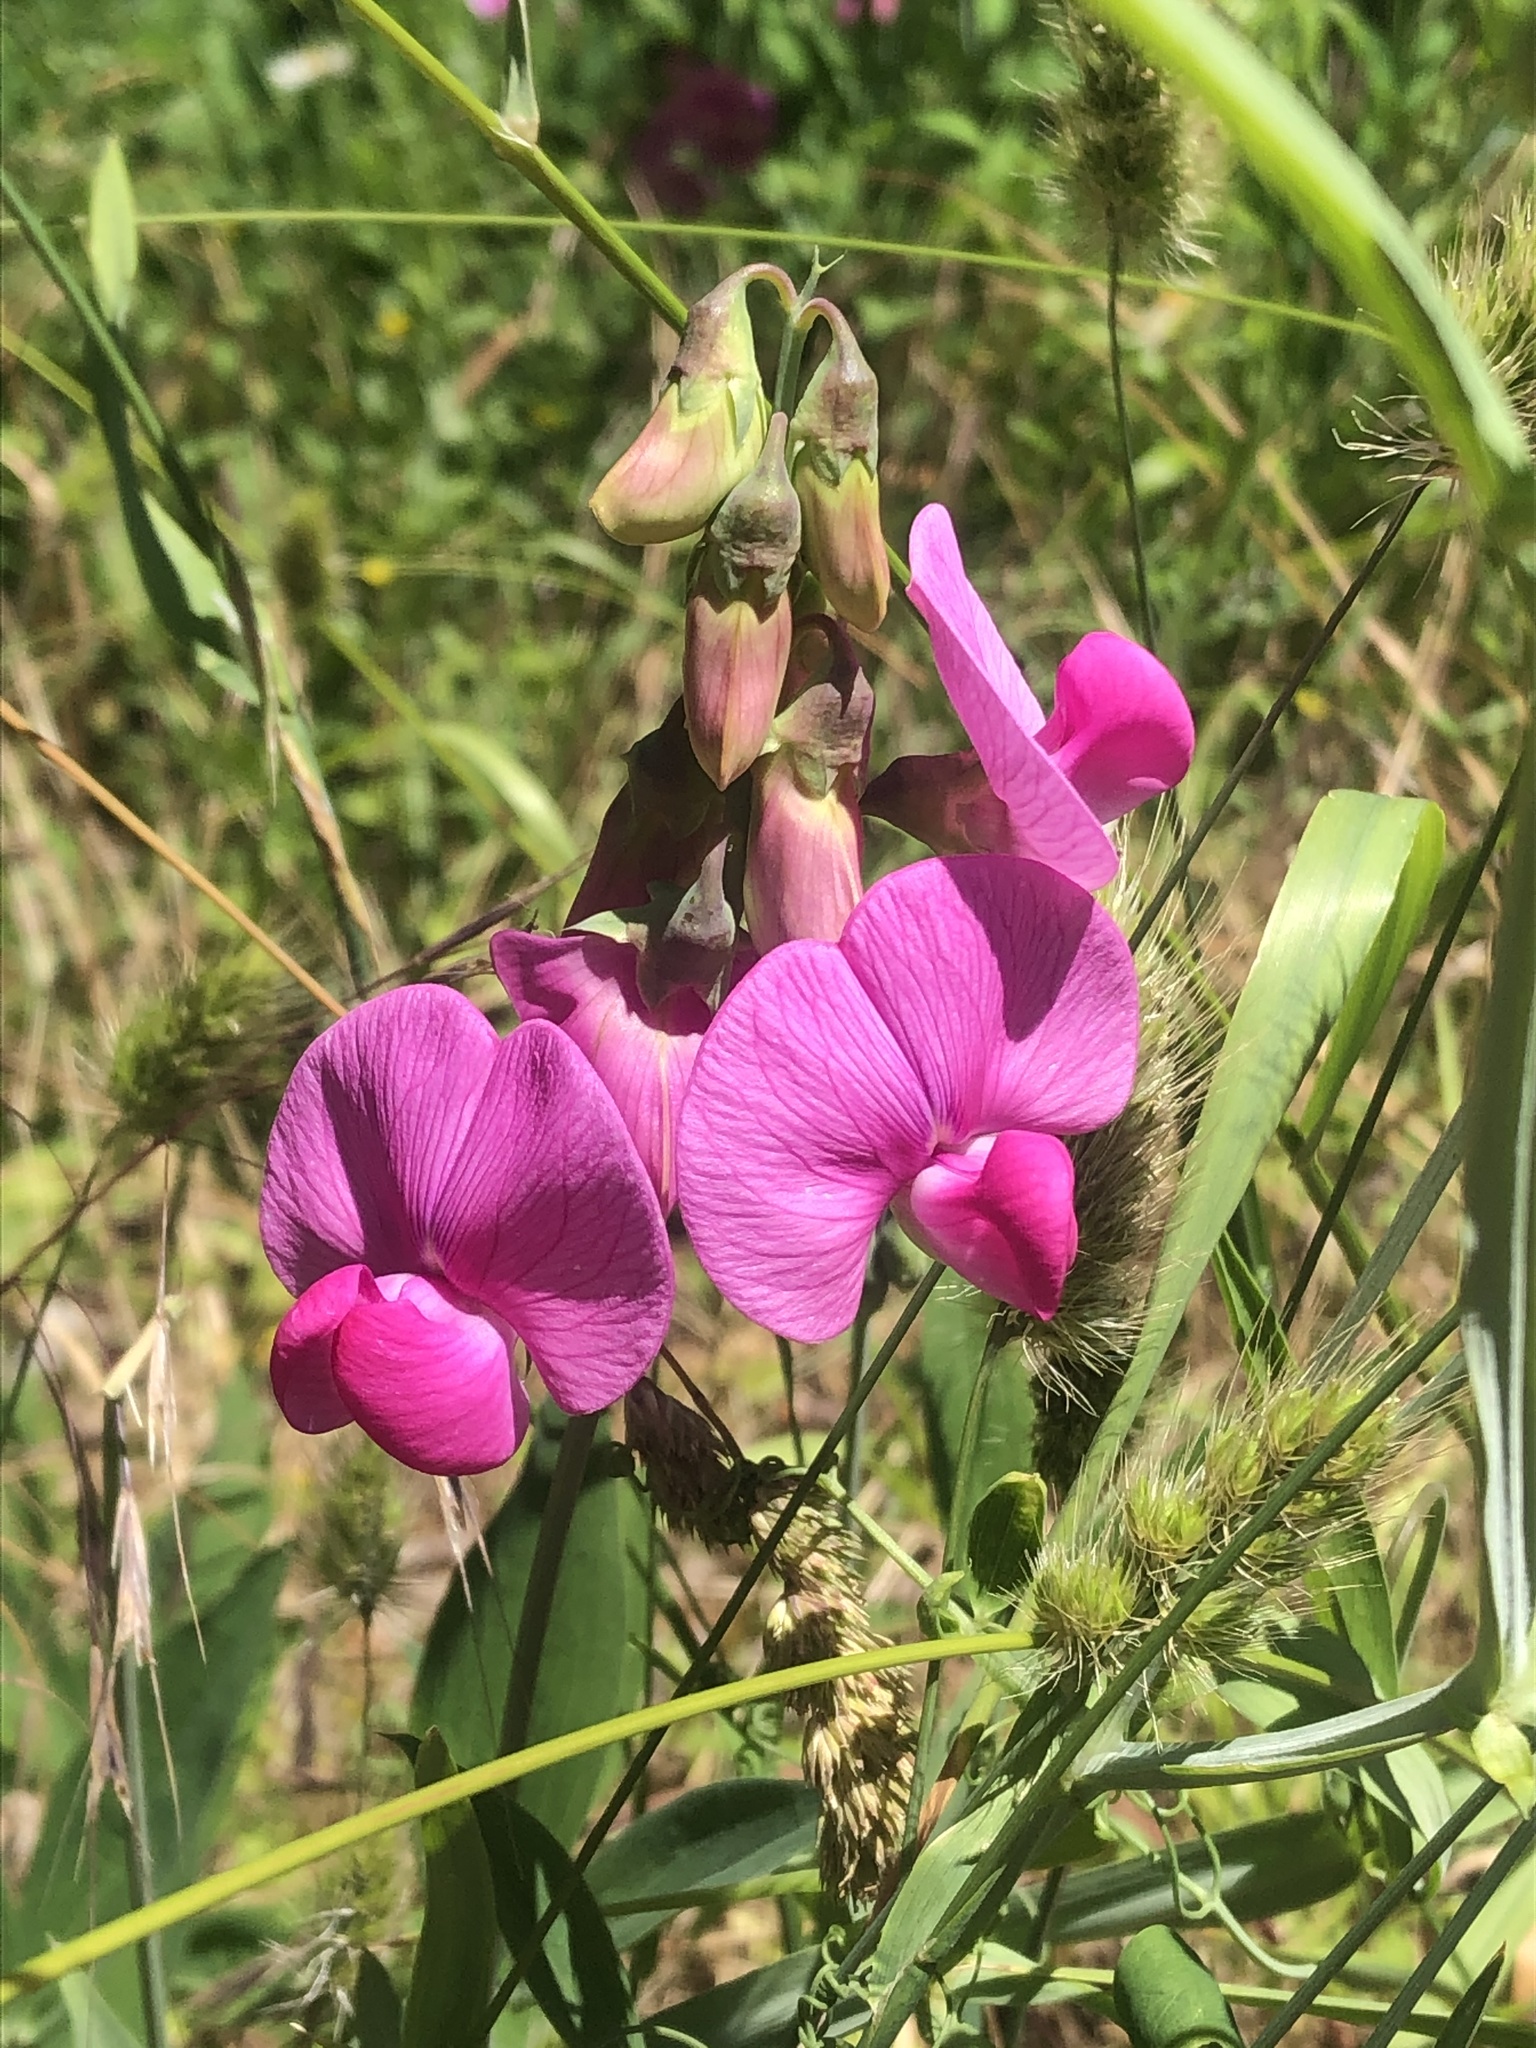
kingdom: Plantae
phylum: Tracheophyta
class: Magnoliopsida
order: Fabales
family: Fabaceae
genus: Lathyrus
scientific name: Lathyrus latifolius
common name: Perennial pea
